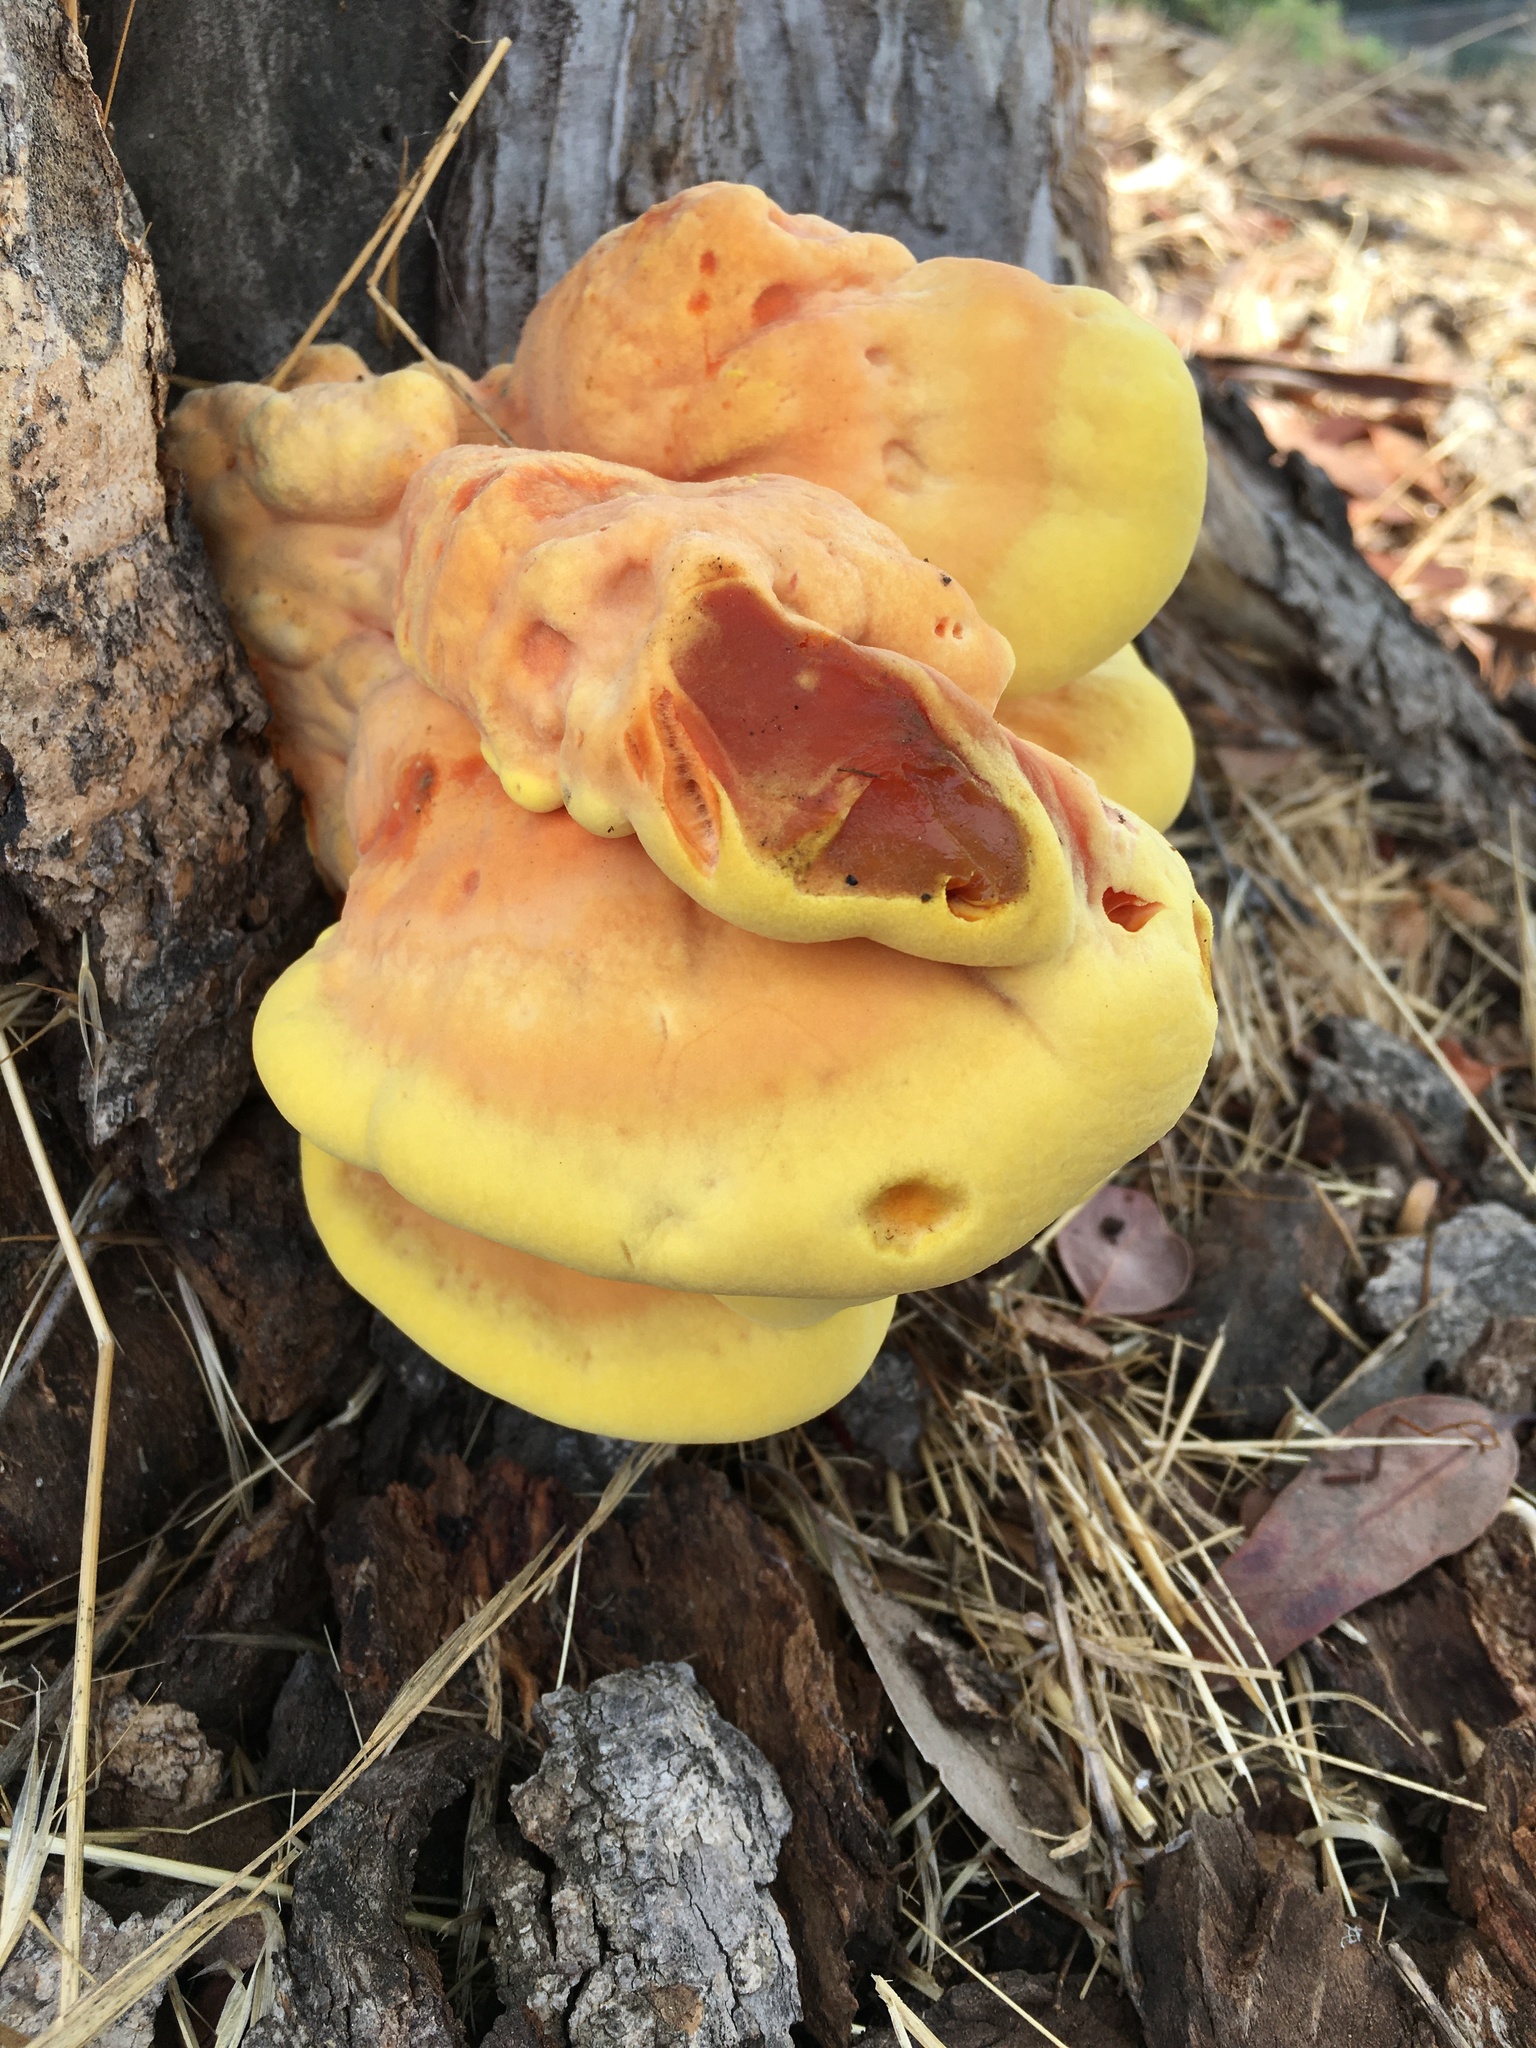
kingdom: Fungi
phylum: Basidiomycota
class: Agaricomycetes
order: Polyporales
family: Laetiporaceae
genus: Laetiporus
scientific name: Laetiporus gilbertsonii
